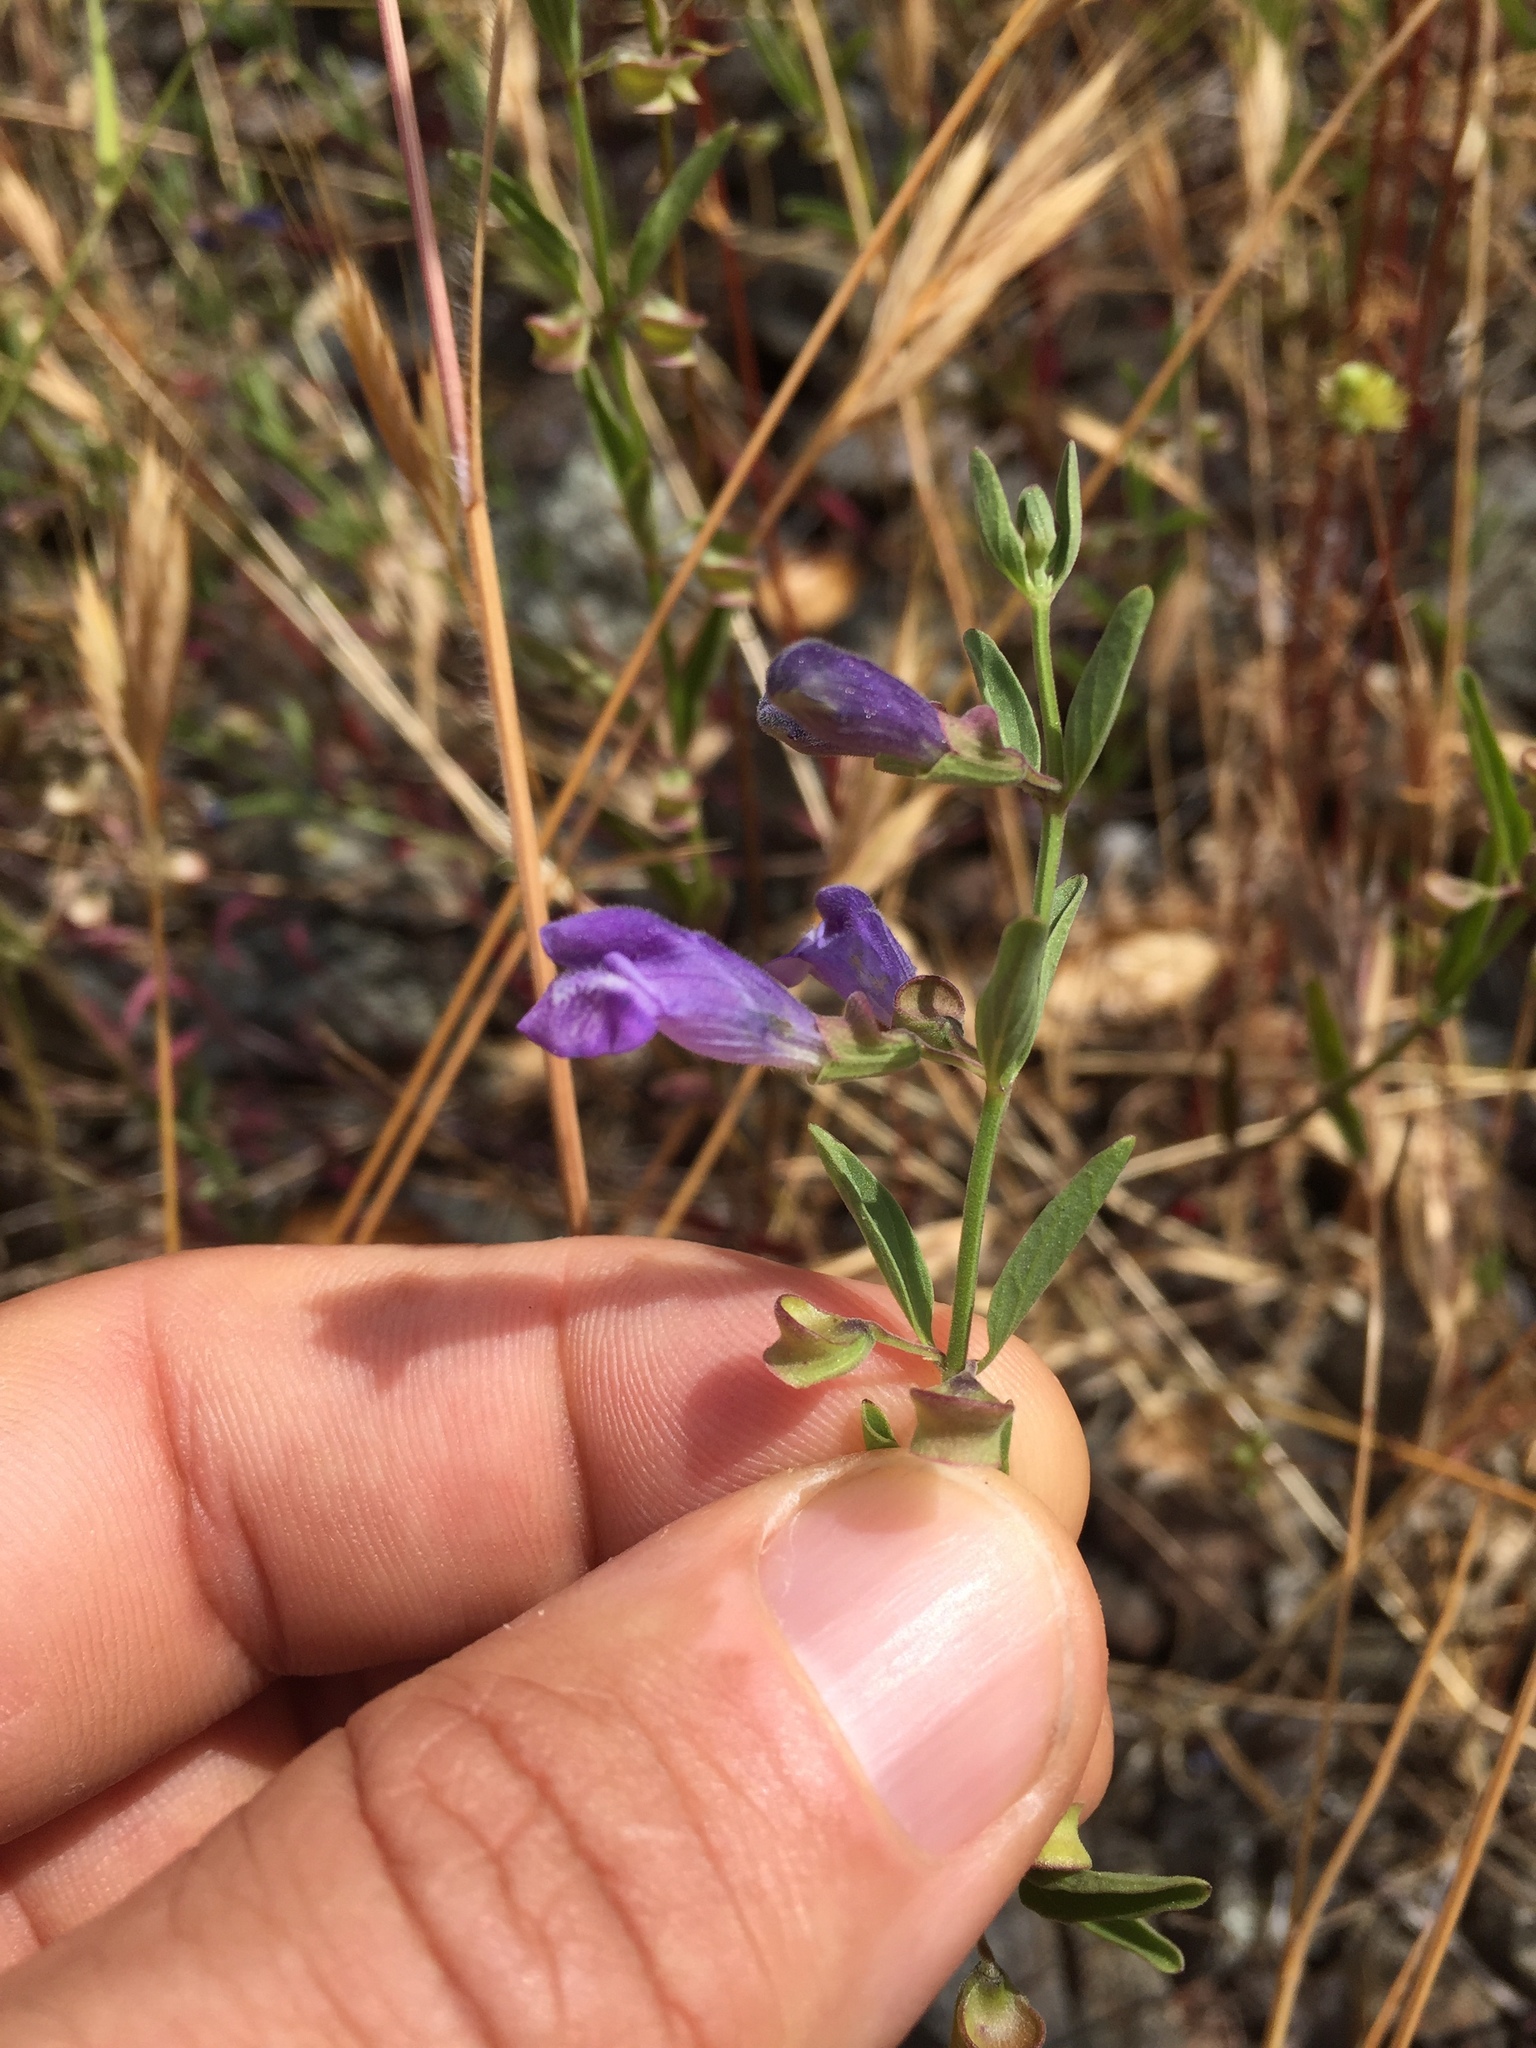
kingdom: Plantae
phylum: Tracheophyta
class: Magnoliopsida
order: Lamiales
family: Lamiaceae
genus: Scutellaria
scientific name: Scutellaria antirrhinoides
